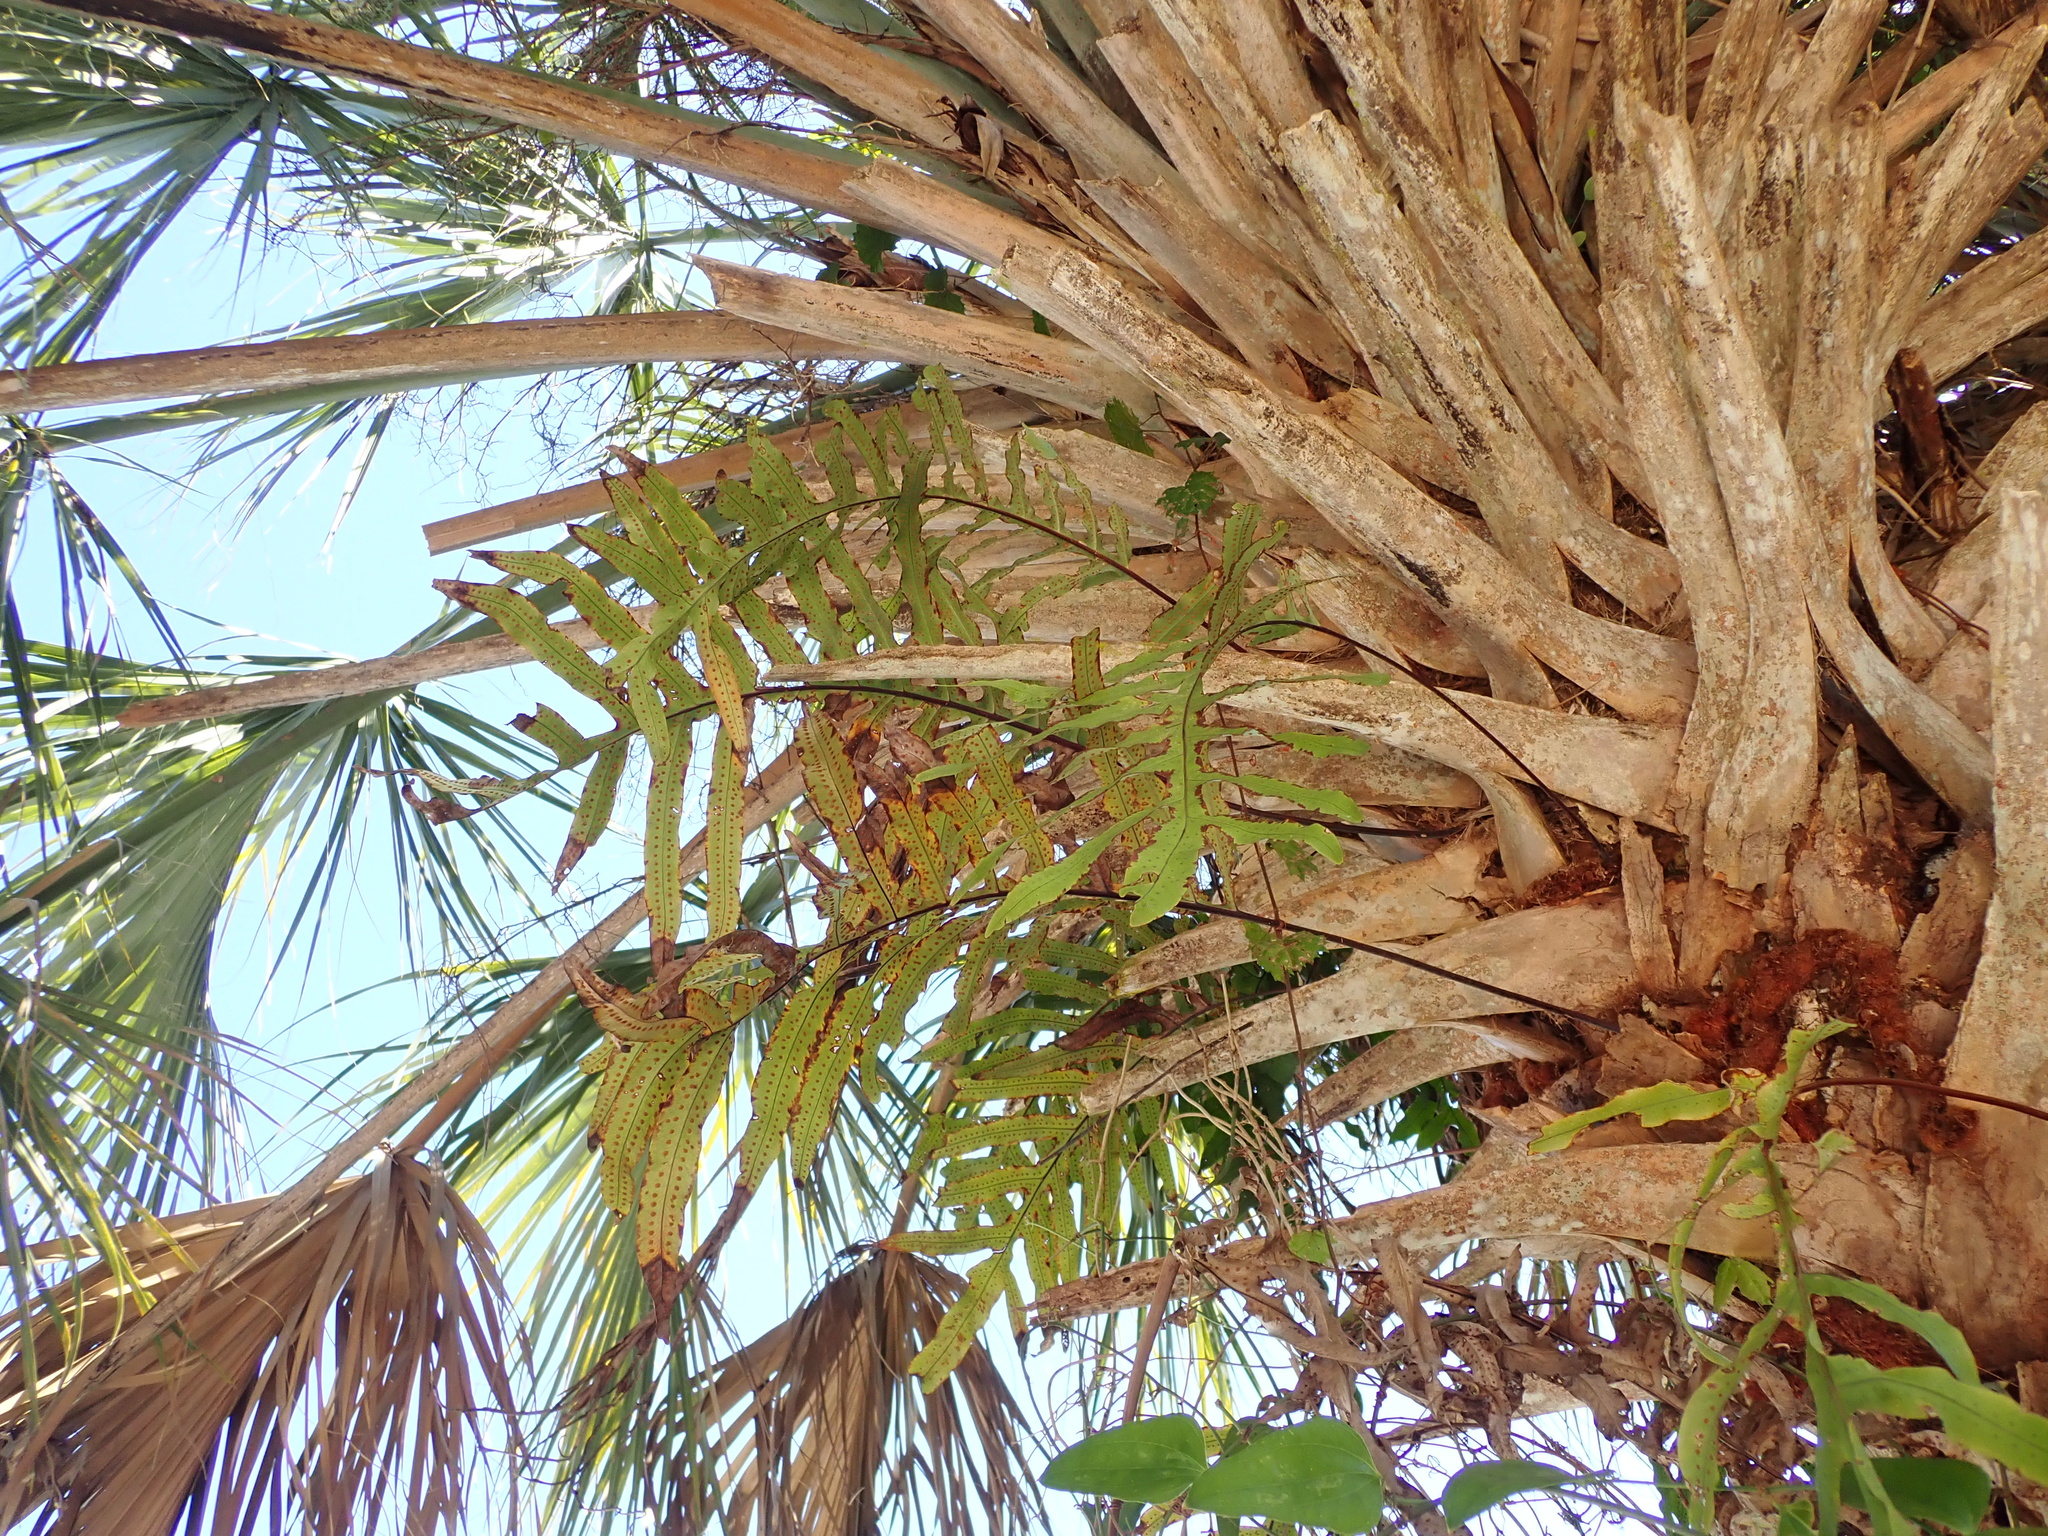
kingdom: Plantae
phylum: Tracheophyta
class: Polypodiopsida
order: Polypodiales
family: Polypodiaceae
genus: Phlebodium
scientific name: Phlebodium aureum
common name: Gold-foot fern
